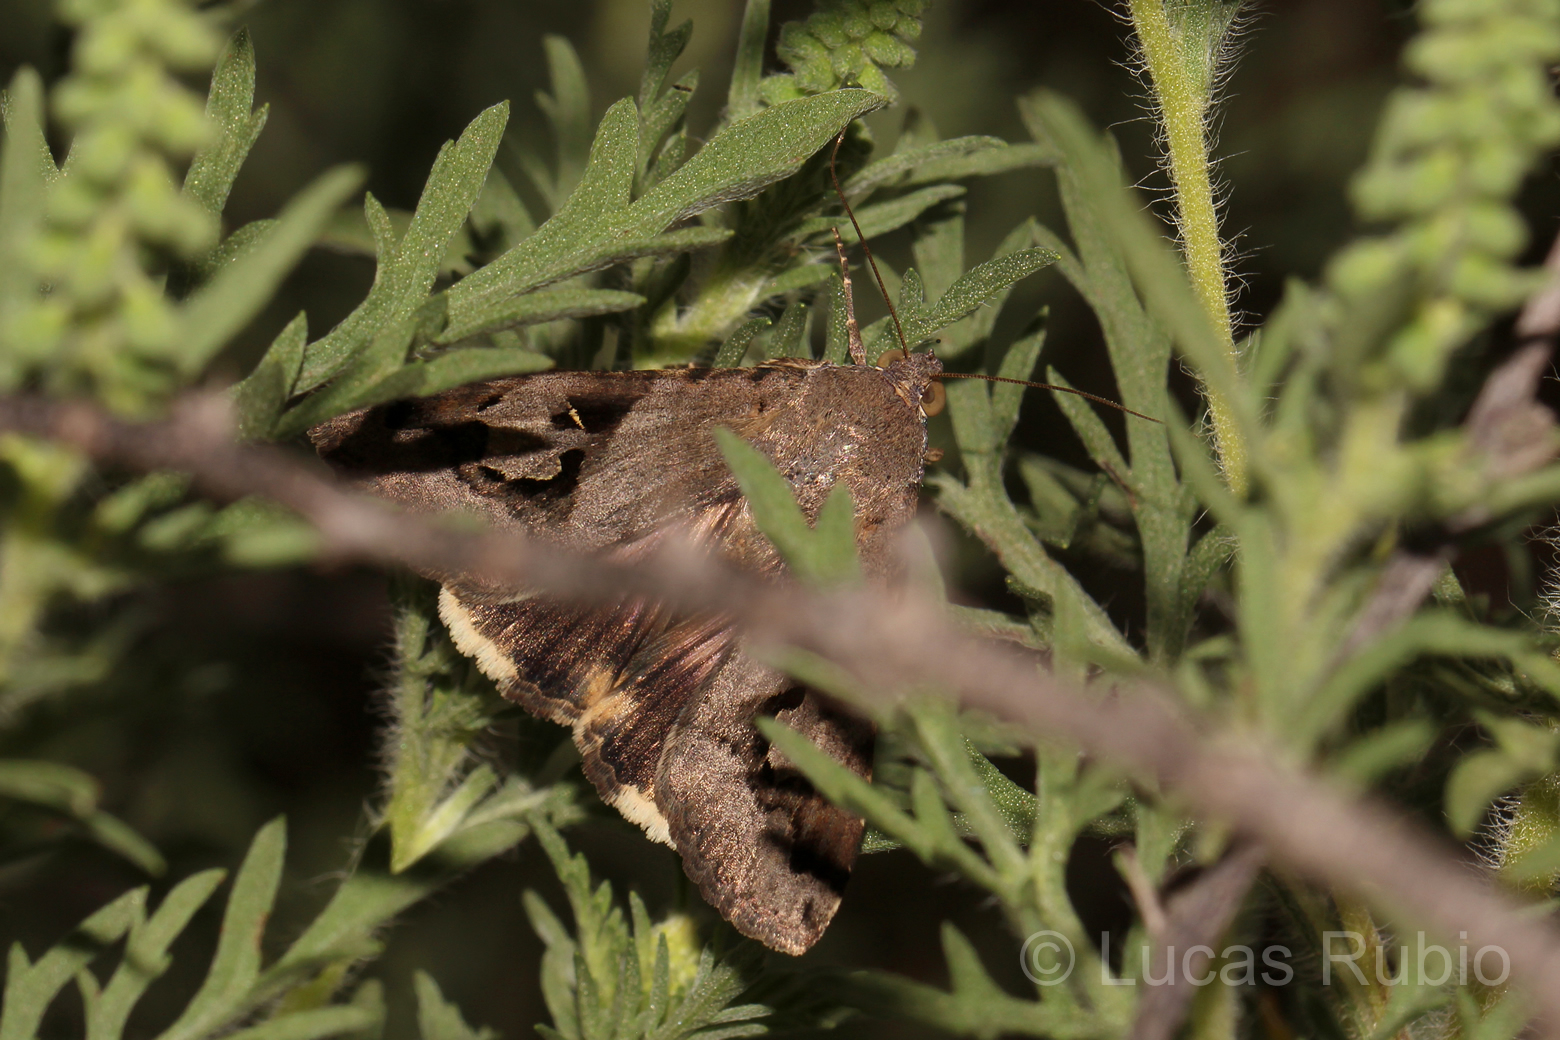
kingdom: Animalia
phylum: Arthropoda
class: Insecta
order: Lepidoptera
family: Erebidae
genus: Melipotis
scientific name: Melipotis ochrodes
